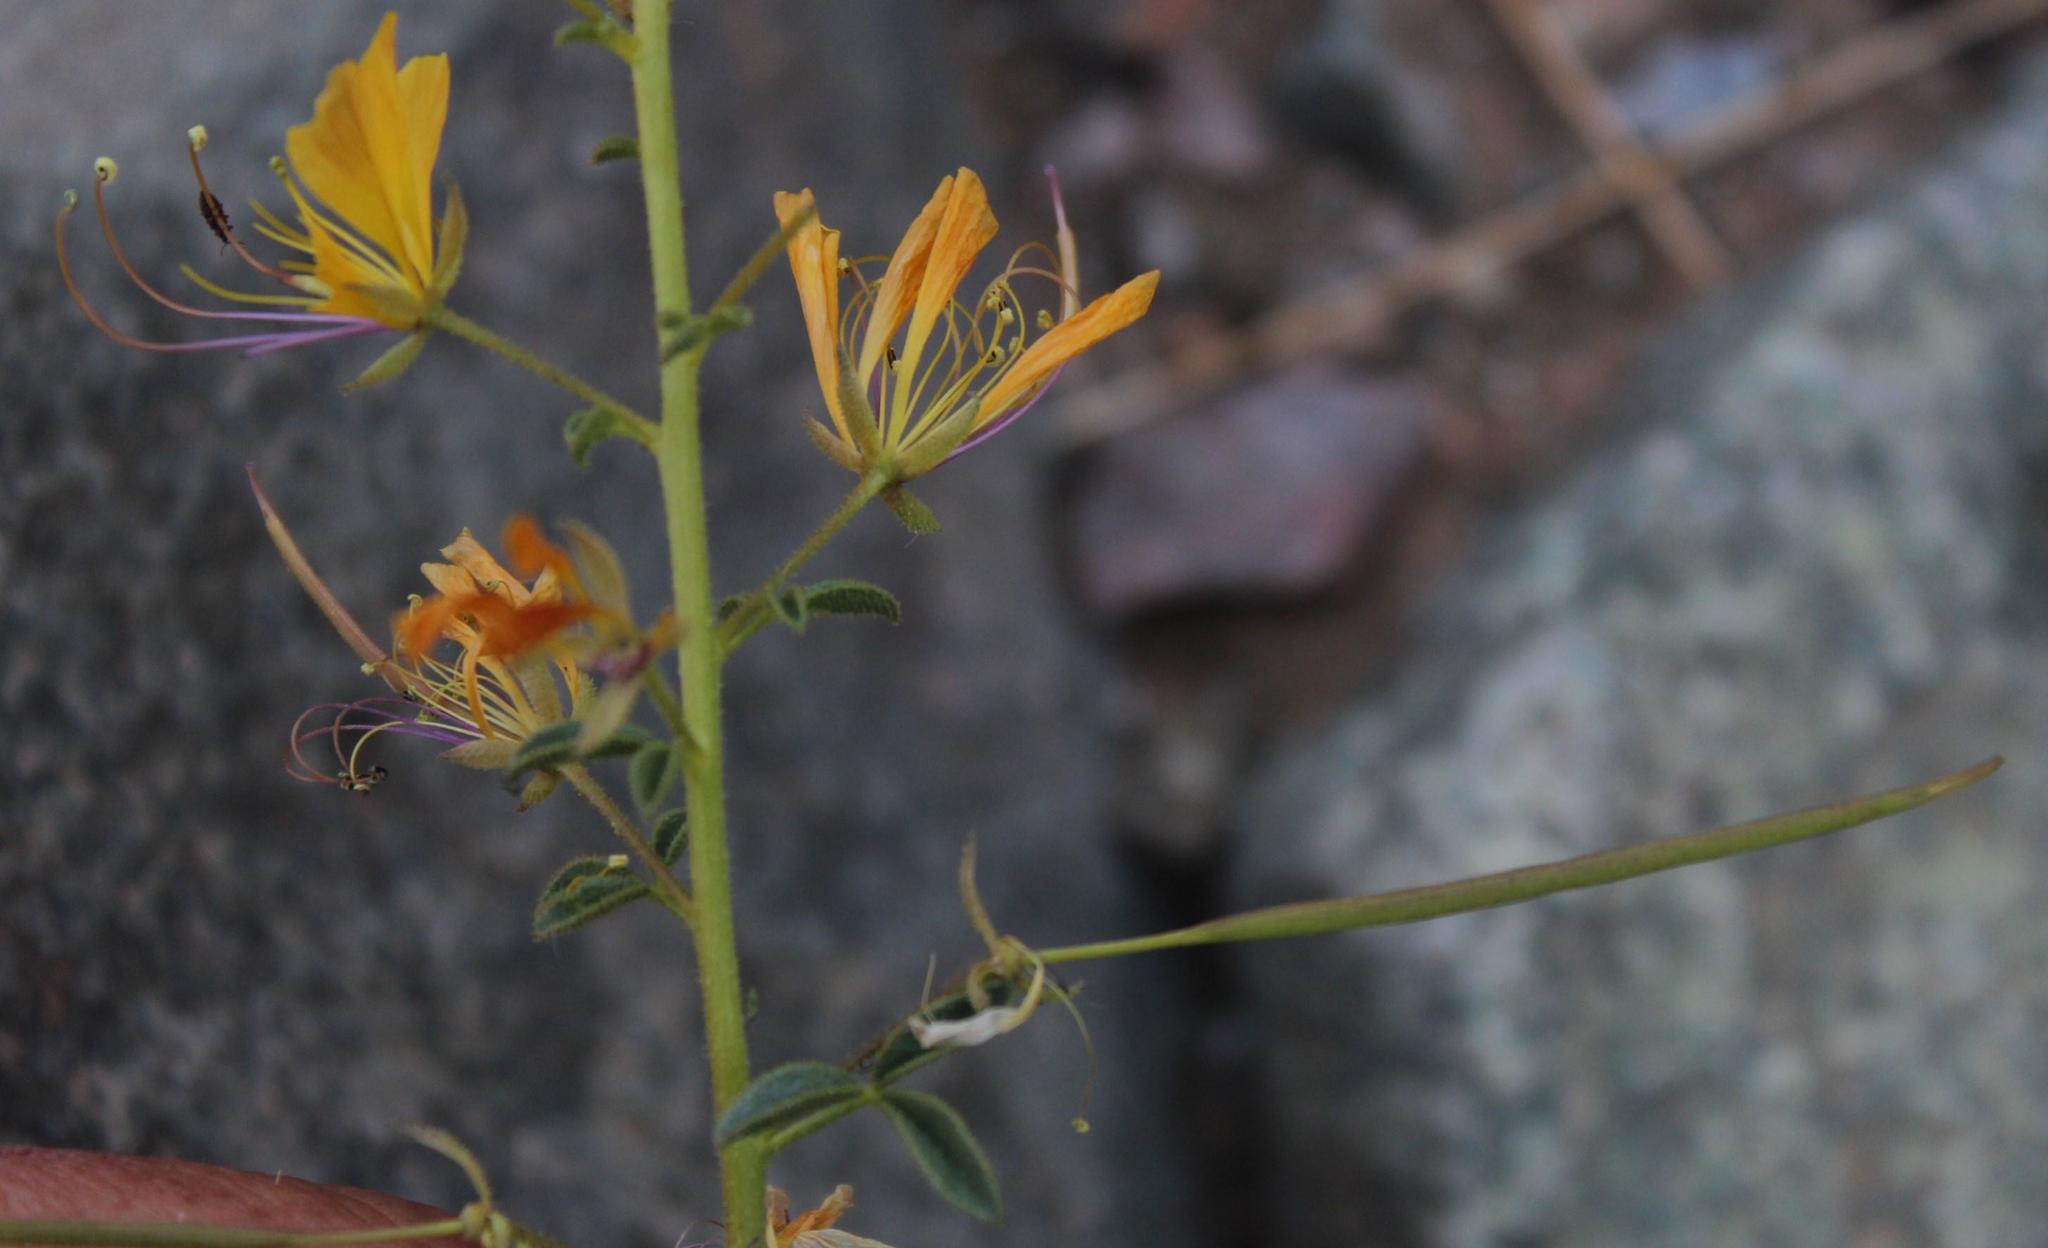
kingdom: Plantae
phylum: Tracheophyta
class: Magnoliopsida
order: Brassicales
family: Cleomaceae
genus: Kersia
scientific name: Kersia foliosa
